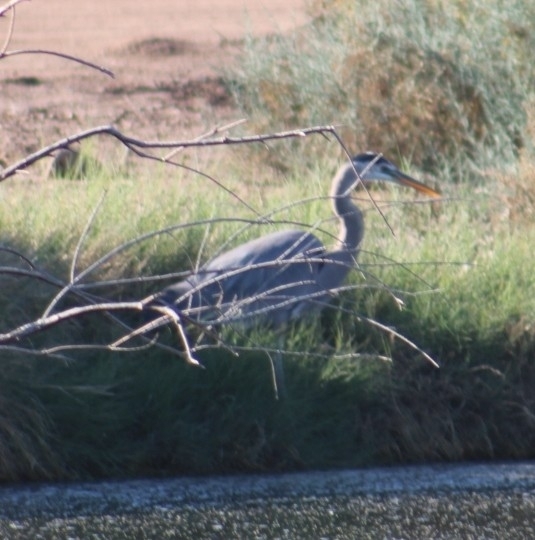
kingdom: Animalia
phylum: Chordata
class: Aves
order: Pelecaniformes
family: Ardeidae
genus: Ardea
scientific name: Ardea herodias
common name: Great blue heron
